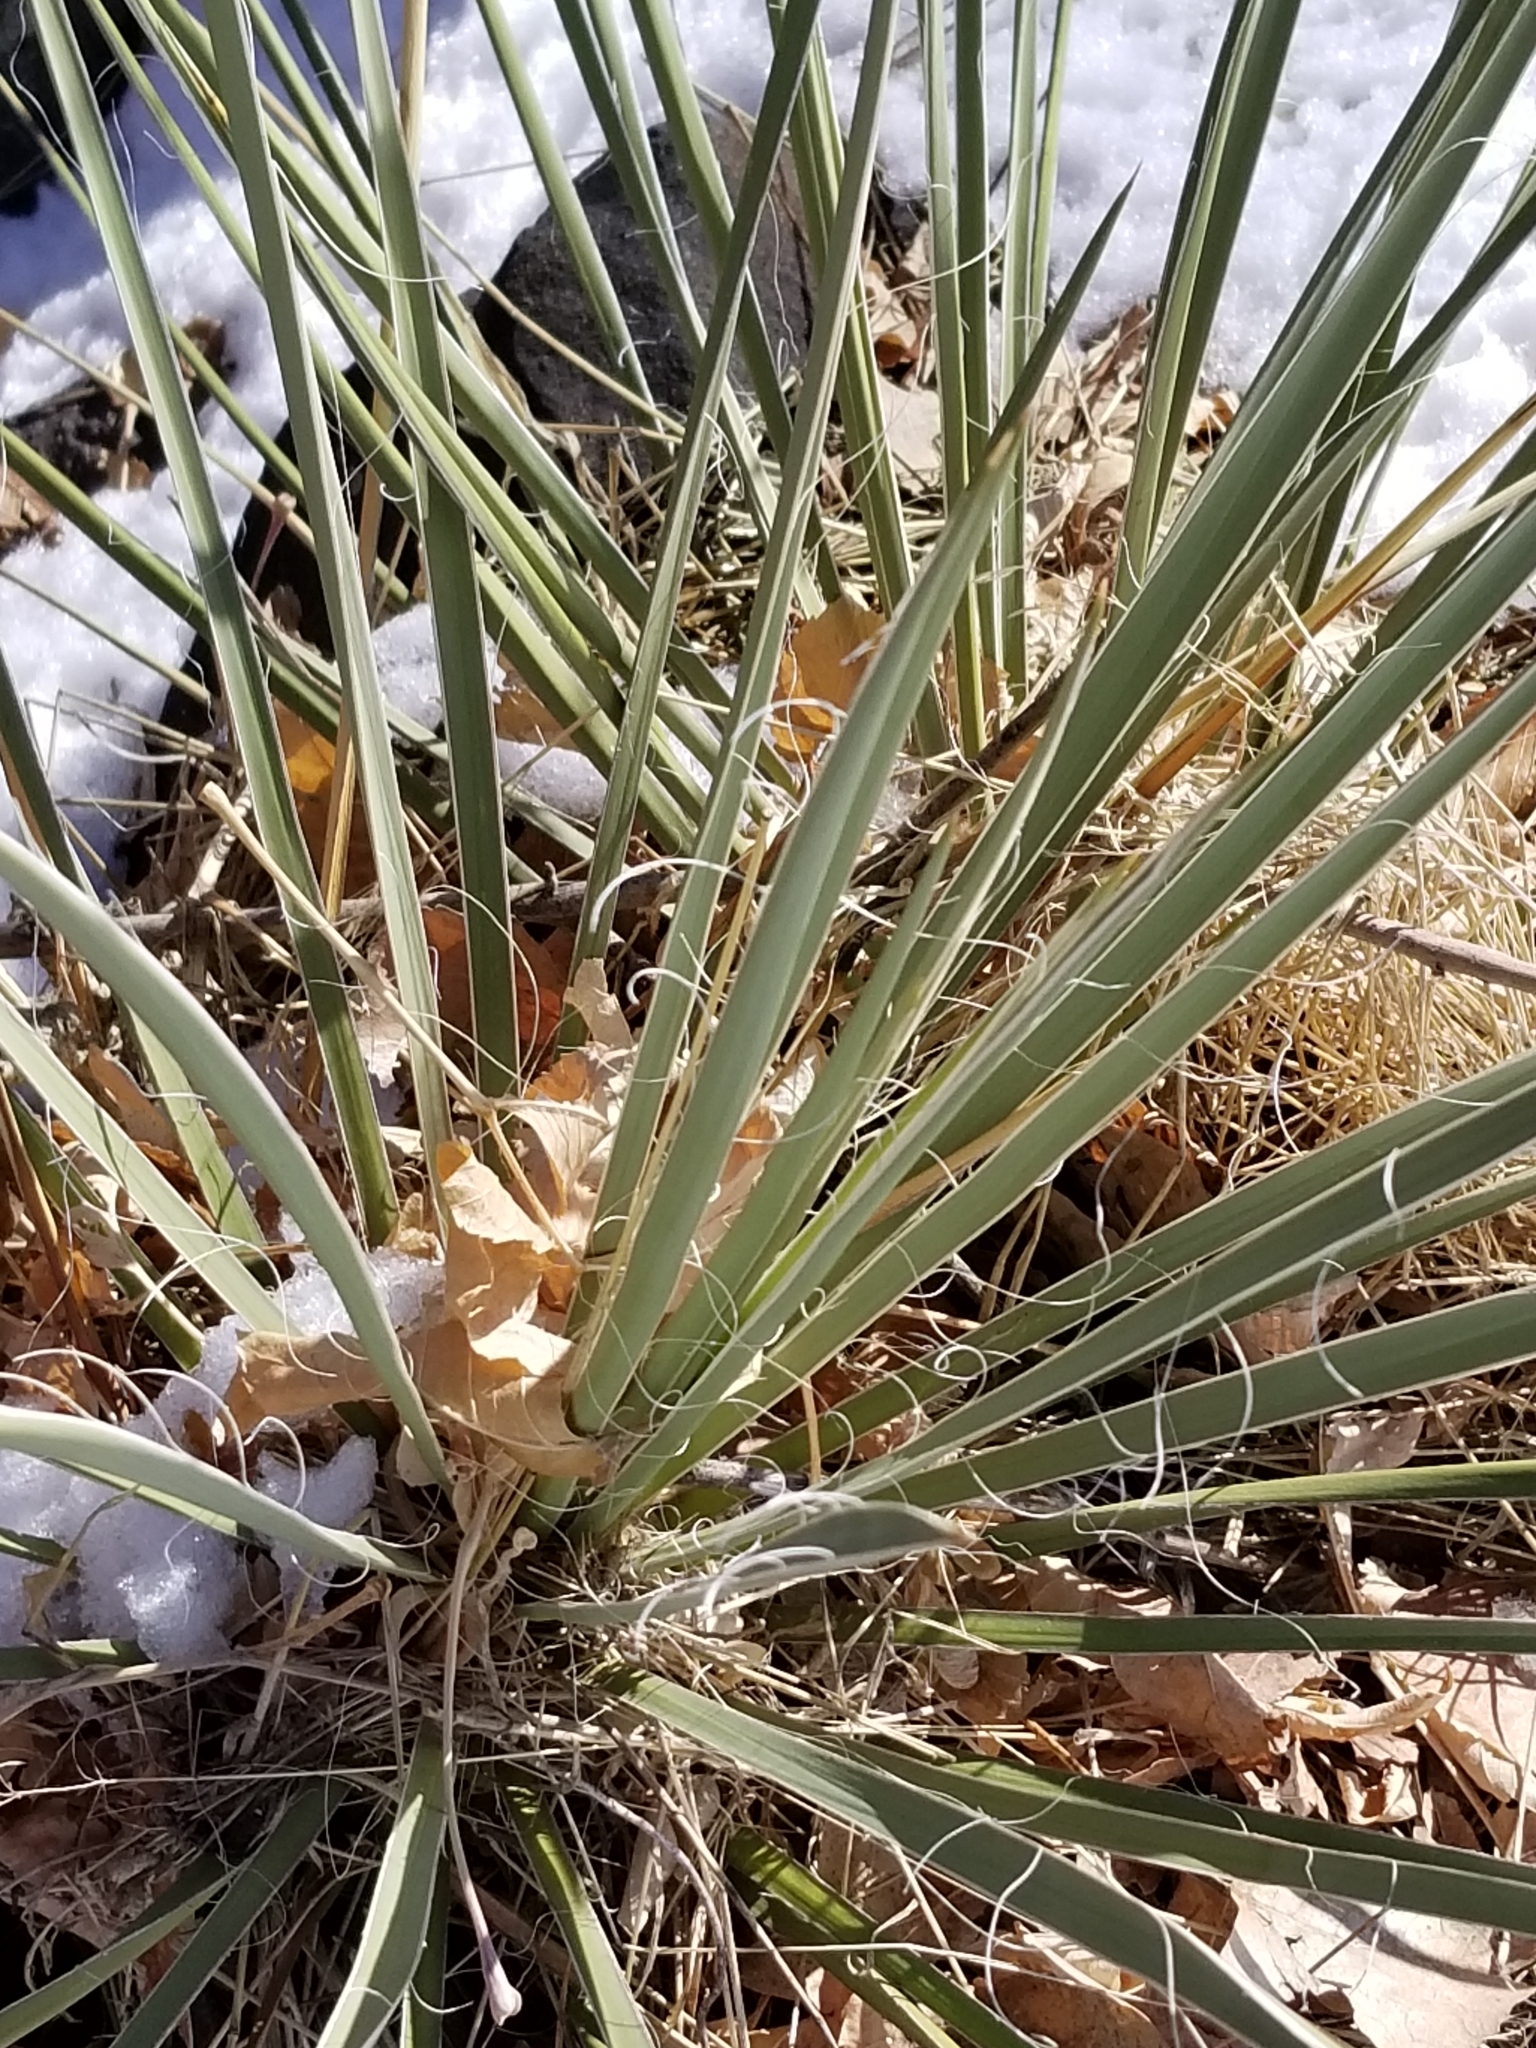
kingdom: Plantae
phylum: Tracheophyta
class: Liliopsida
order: Asparagales
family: Asparagaceae
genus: Yucca
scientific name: Yucca glauca
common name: Great plains yucca
